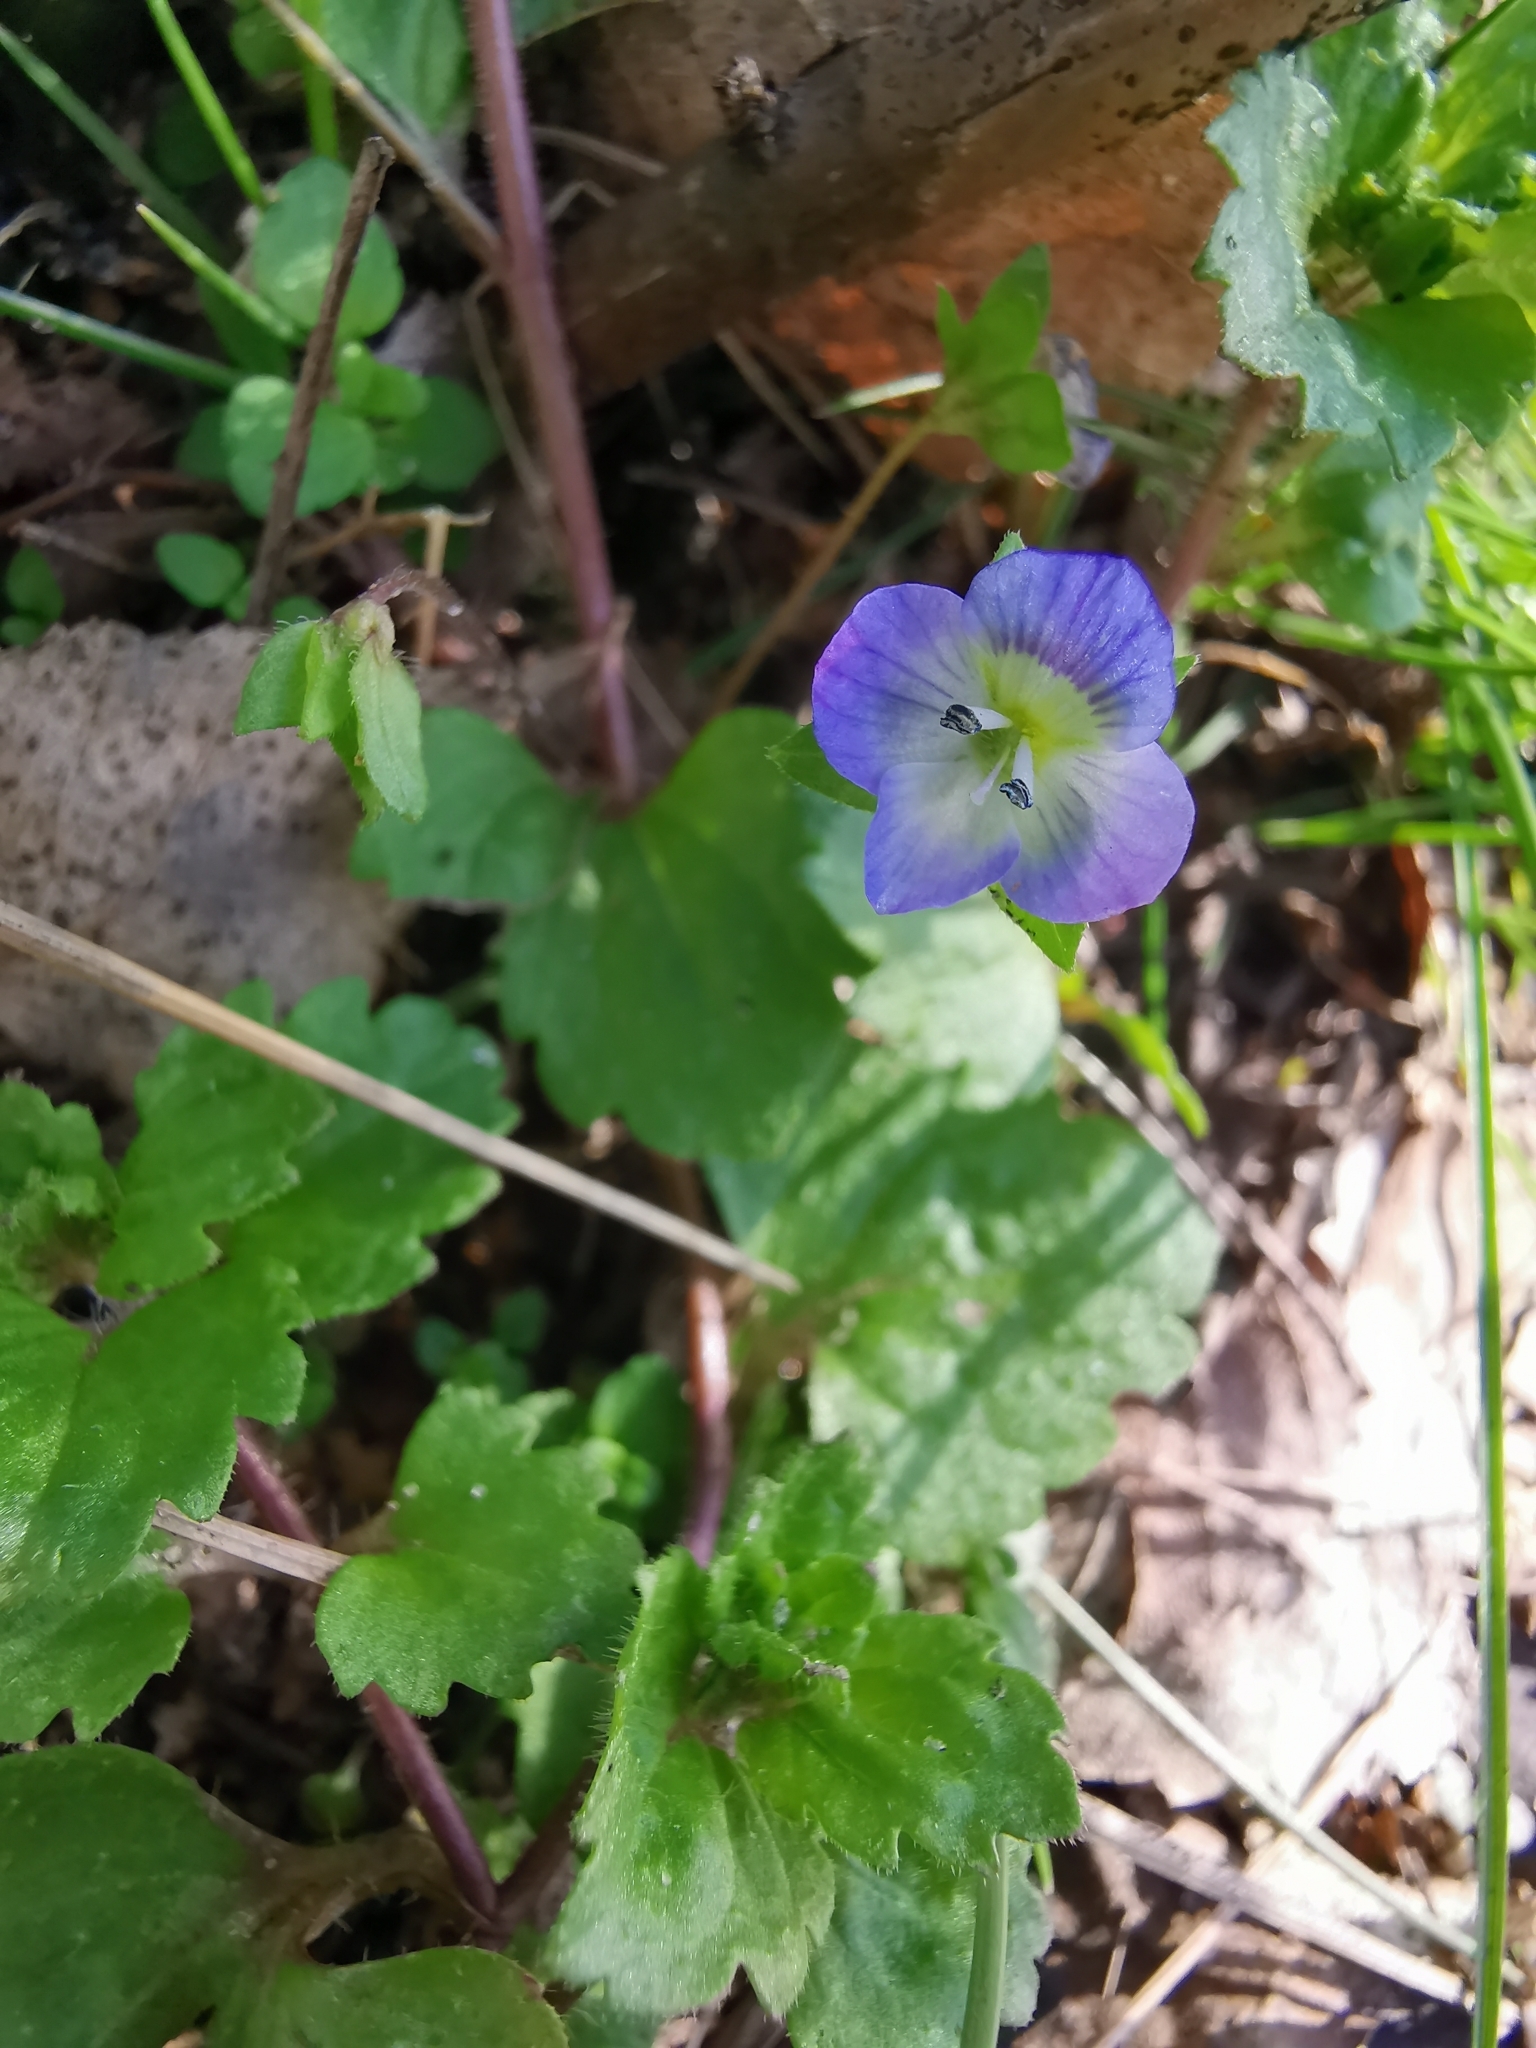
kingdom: Plantae
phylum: Tracheophyta
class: Magnoliopsida
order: Lamiales
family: Plantaginaceae
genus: Veronica
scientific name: Veronica persica
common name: Common field-speedwell
